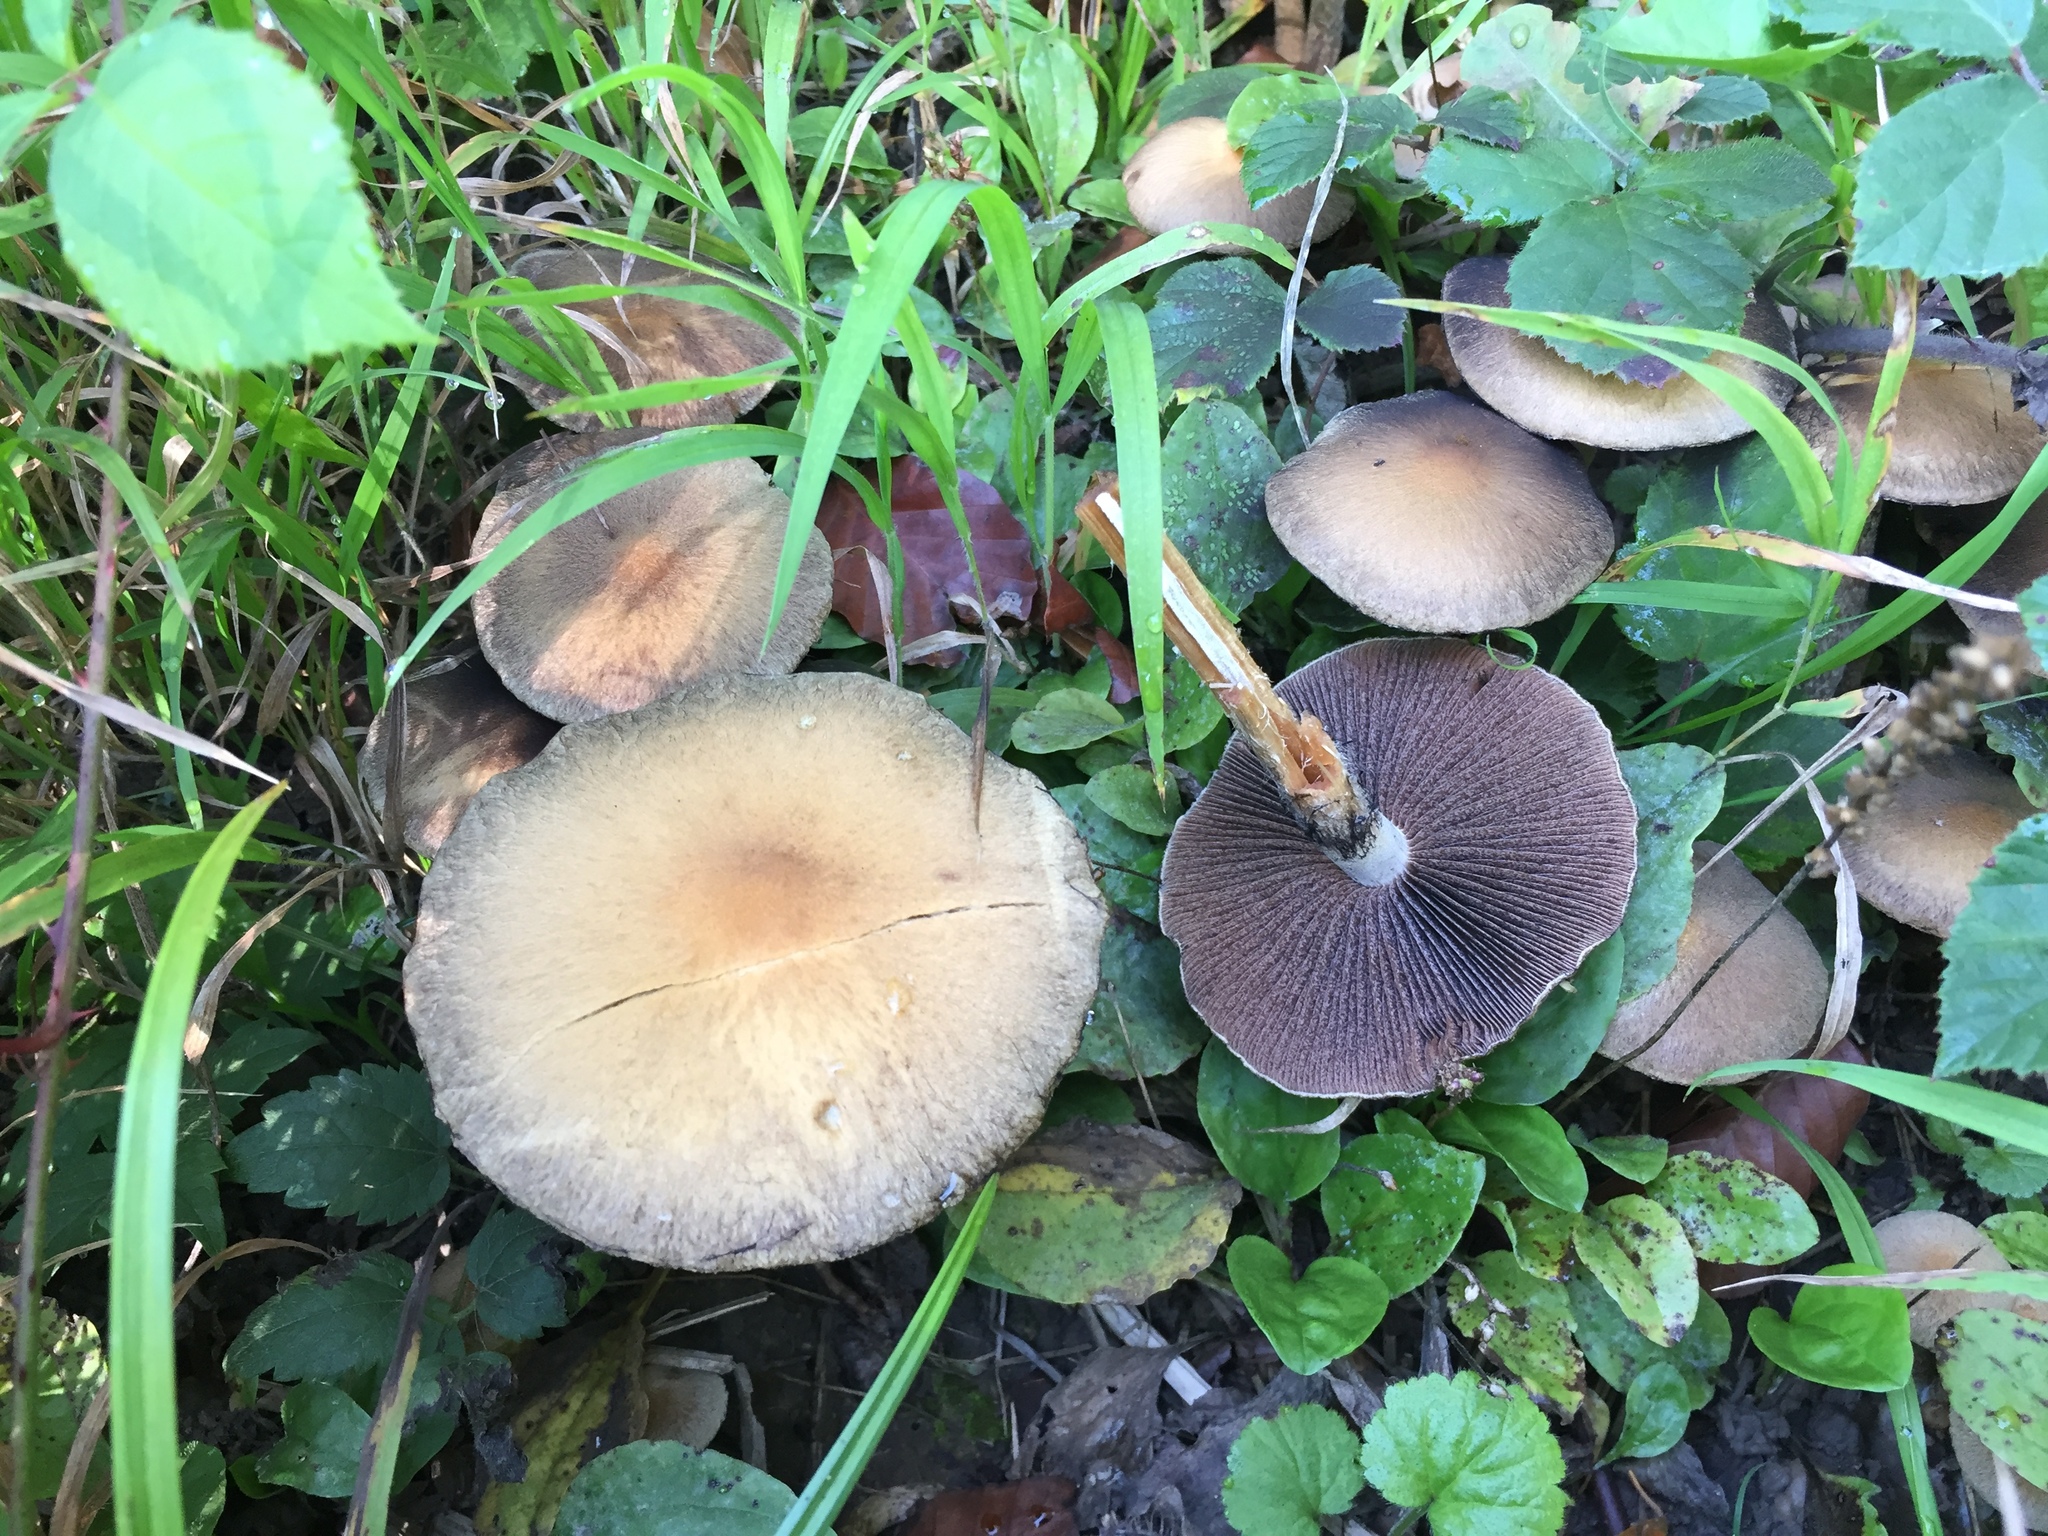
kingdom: Fungi
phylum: Basidiomycota
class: Agaricomycetes
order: Agaricales
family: Psathyrellaceae
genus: Lacrymaria
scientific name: Lacrymaria lacrymabunda
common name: Weeping widow
